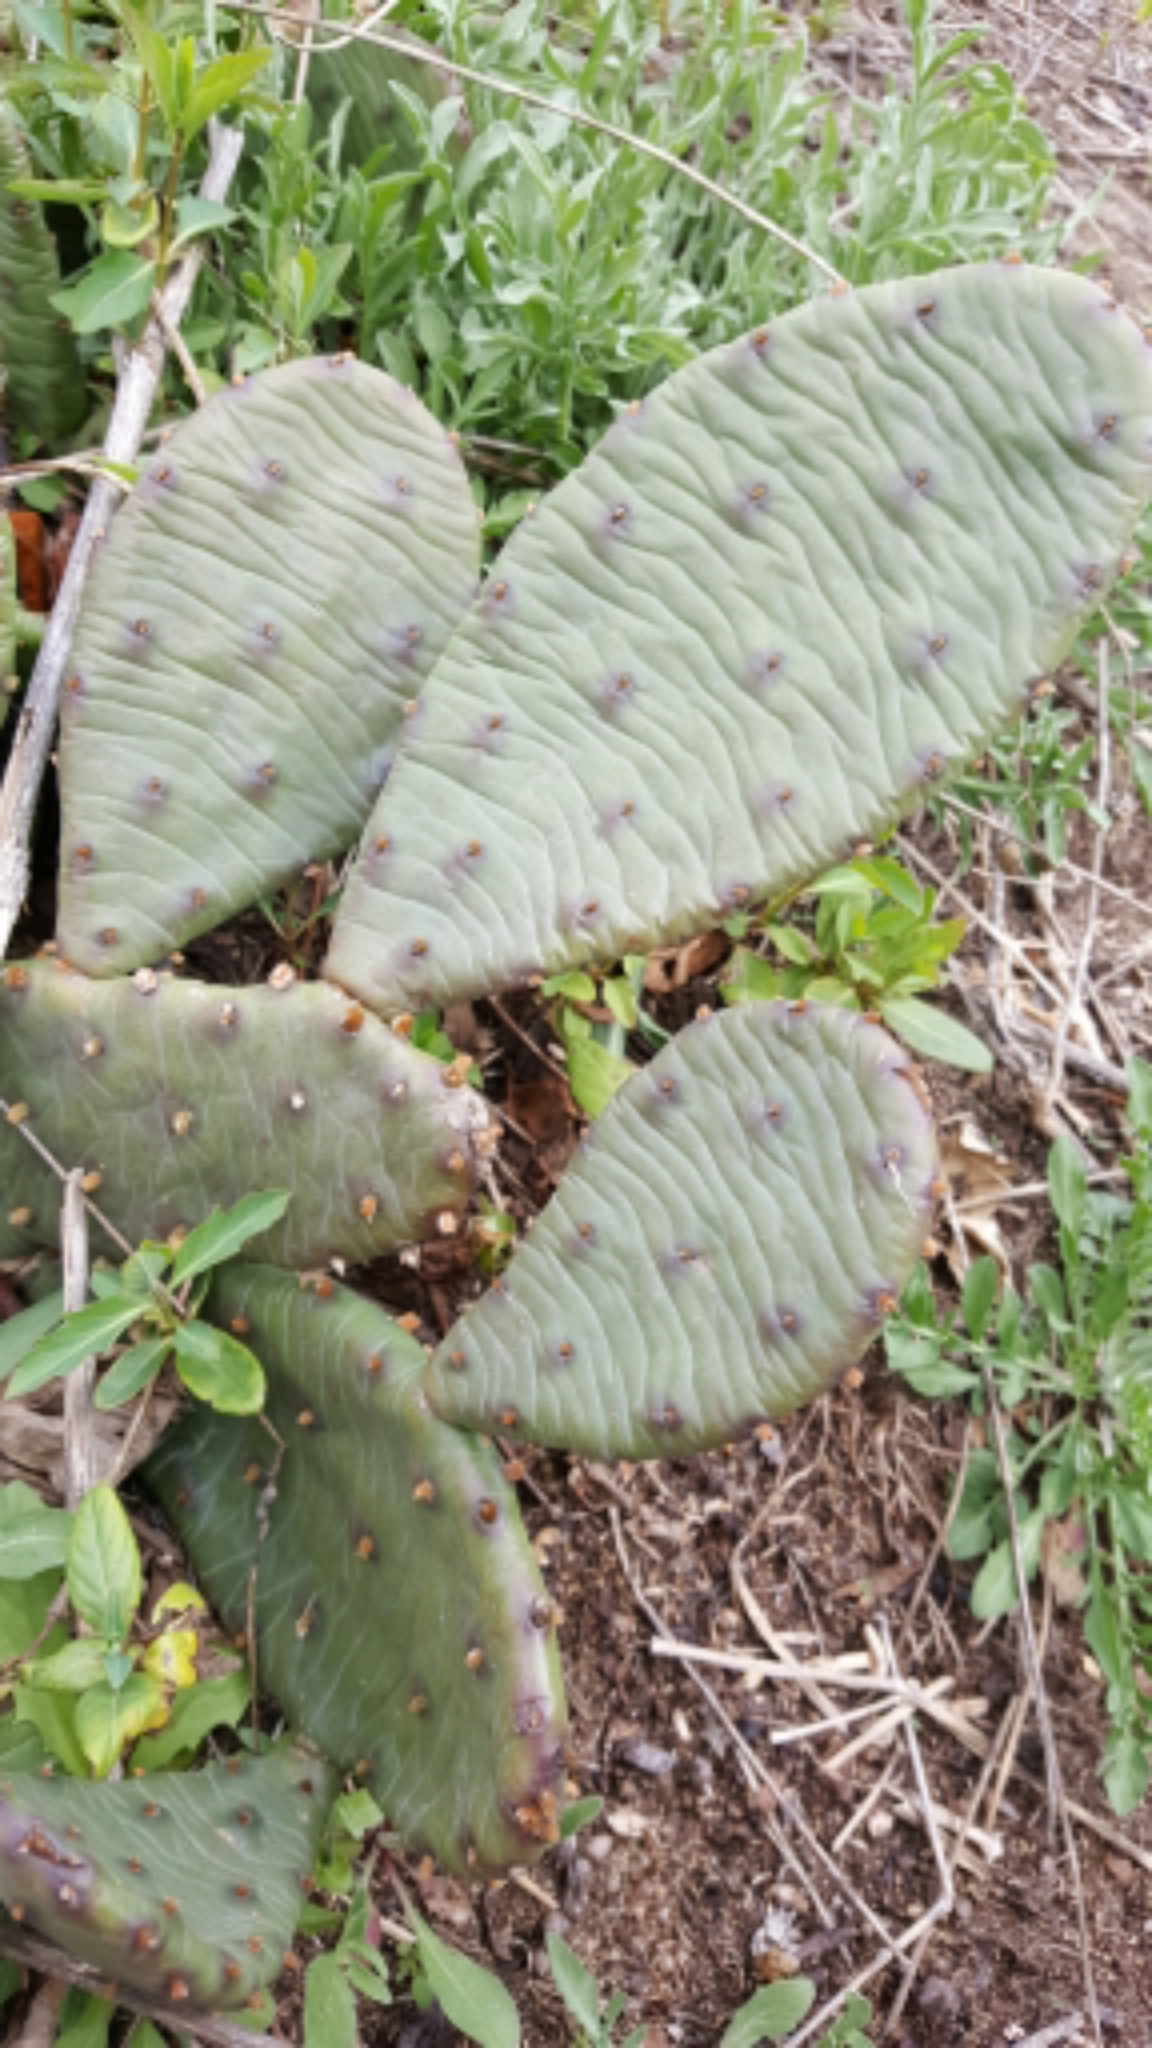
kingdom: Plantae
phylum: Tracheophyta
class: Magnoliopsida
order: Caryophyllales
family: Cactaceae
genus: Opuntia
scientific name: Opuntia humifusa
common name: Eastern prickly-pear
